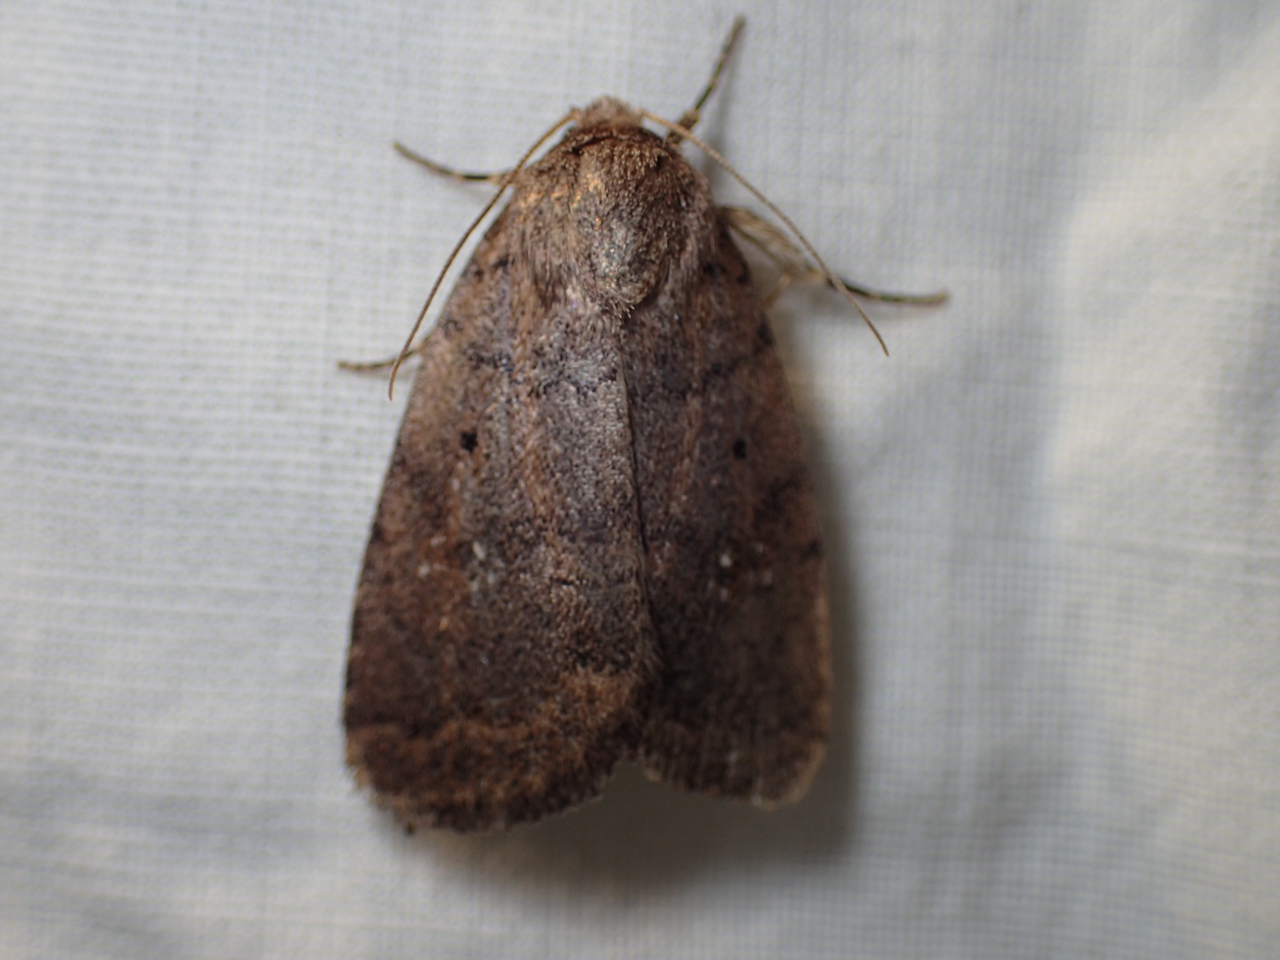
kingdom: Animalia
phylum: Arthropoda
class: Insecta
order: Lepidoptera
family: Noctuidae
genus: Athetis
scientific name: Athetis tarda
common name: Slowpoke moth
